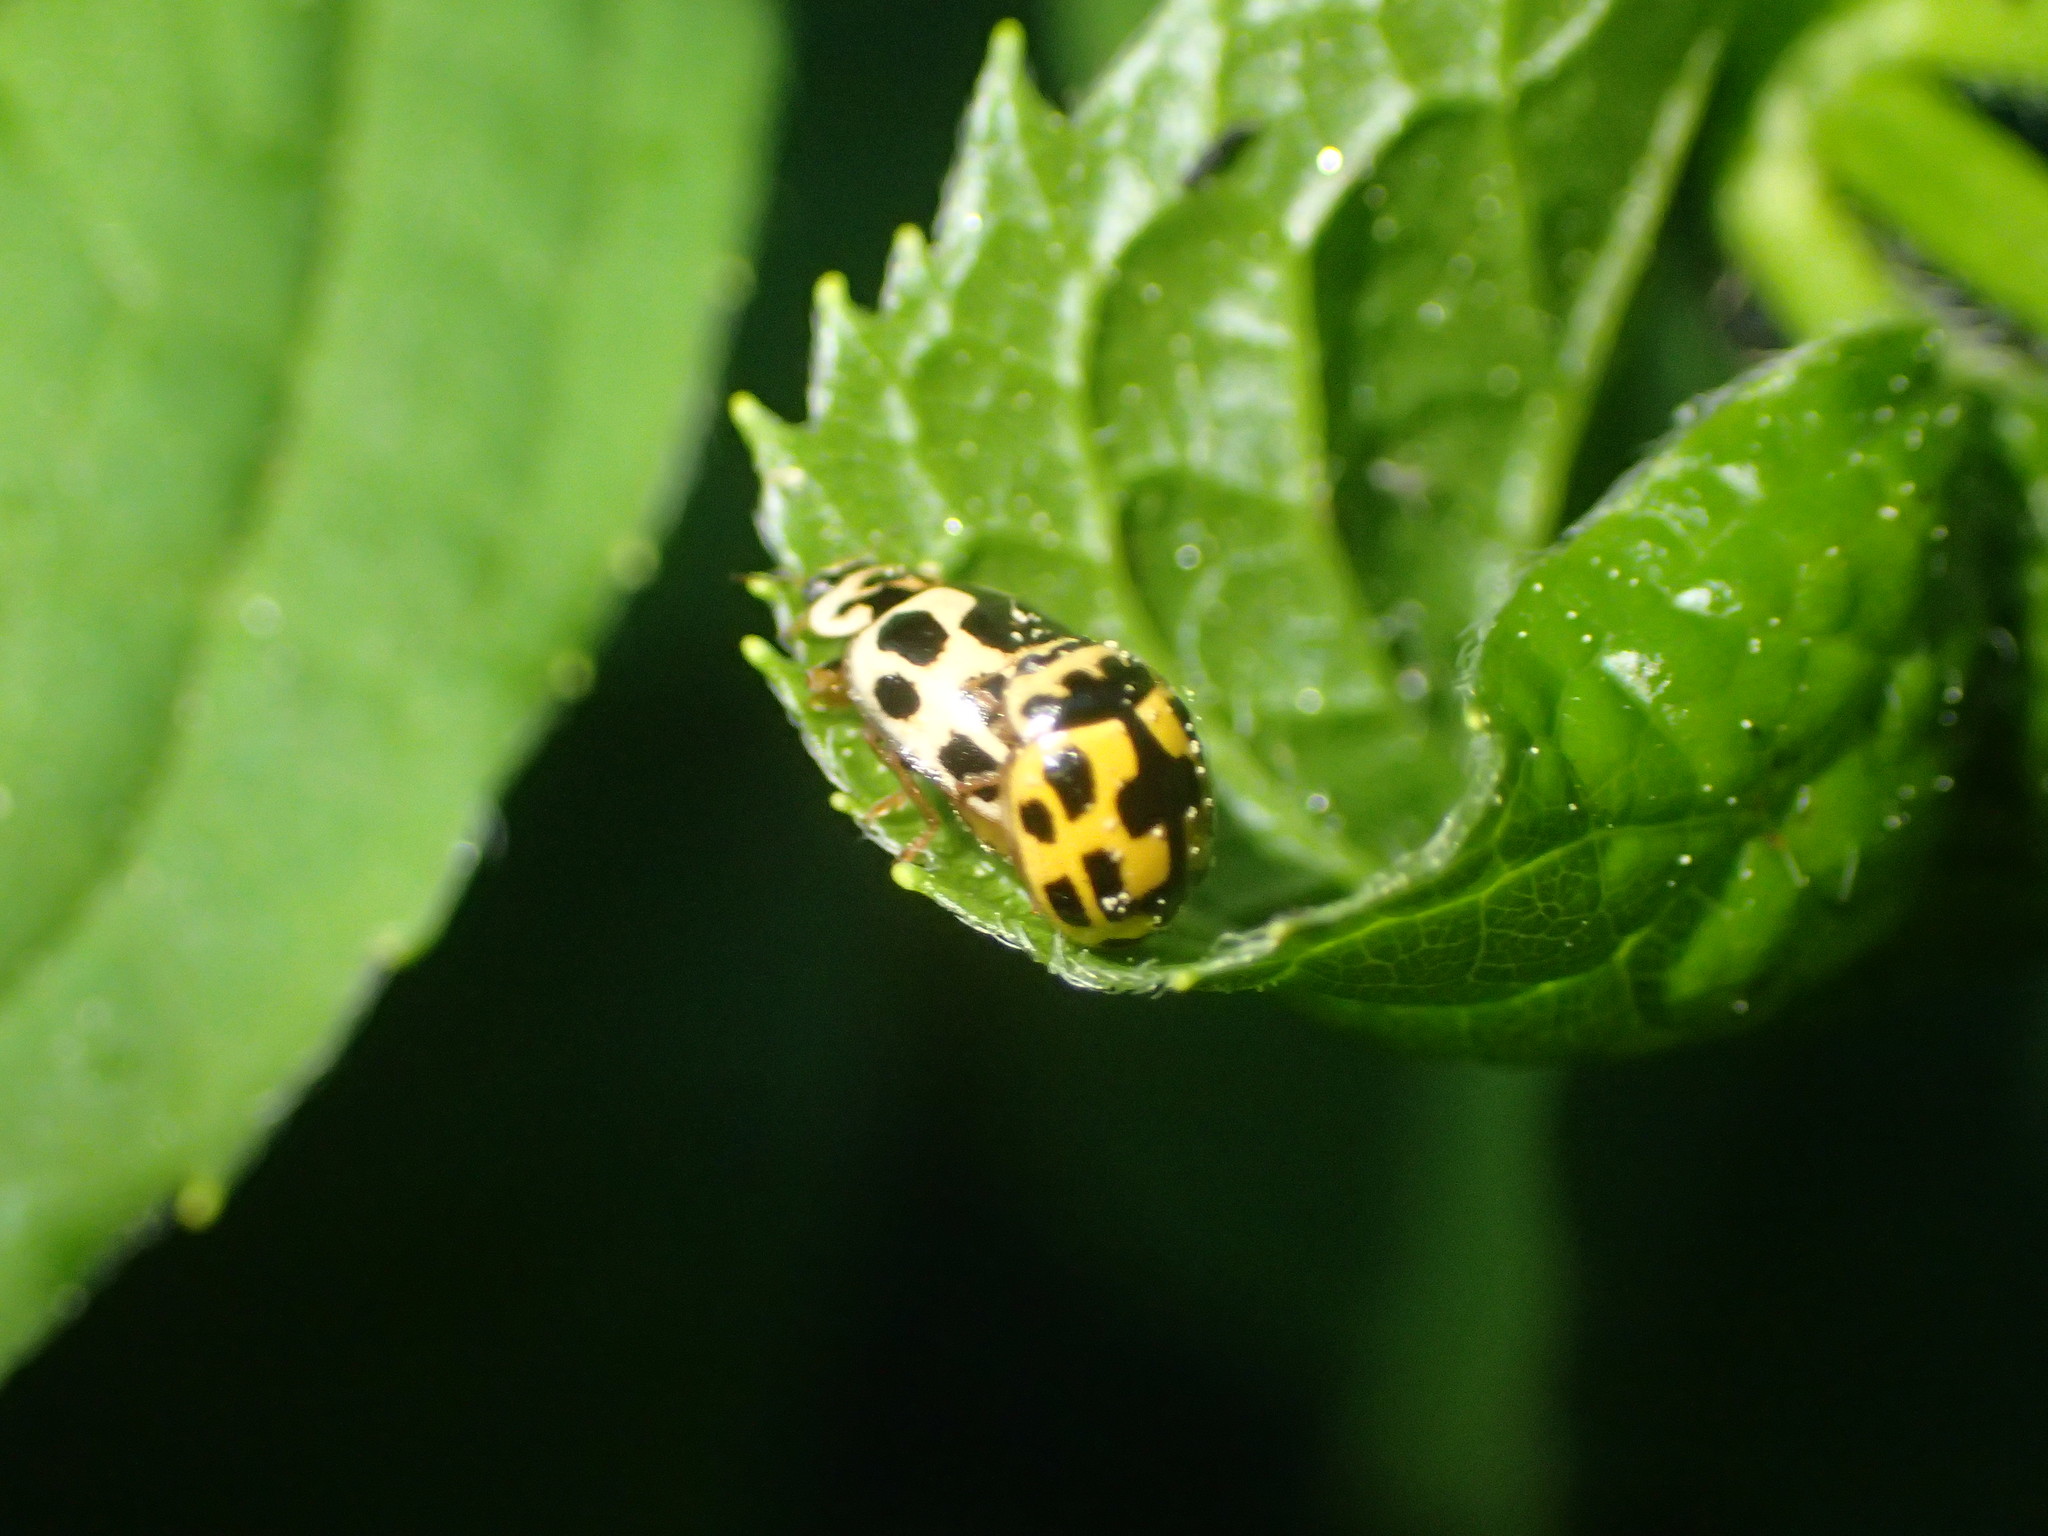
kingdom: Animalia
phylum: Arthropoda
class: Insecta
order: Coleoptera
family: Coccinellidae
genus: Propylaea
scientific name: Propylaea quatuordecimpunctata
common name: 14-spotted ladybird beetle
